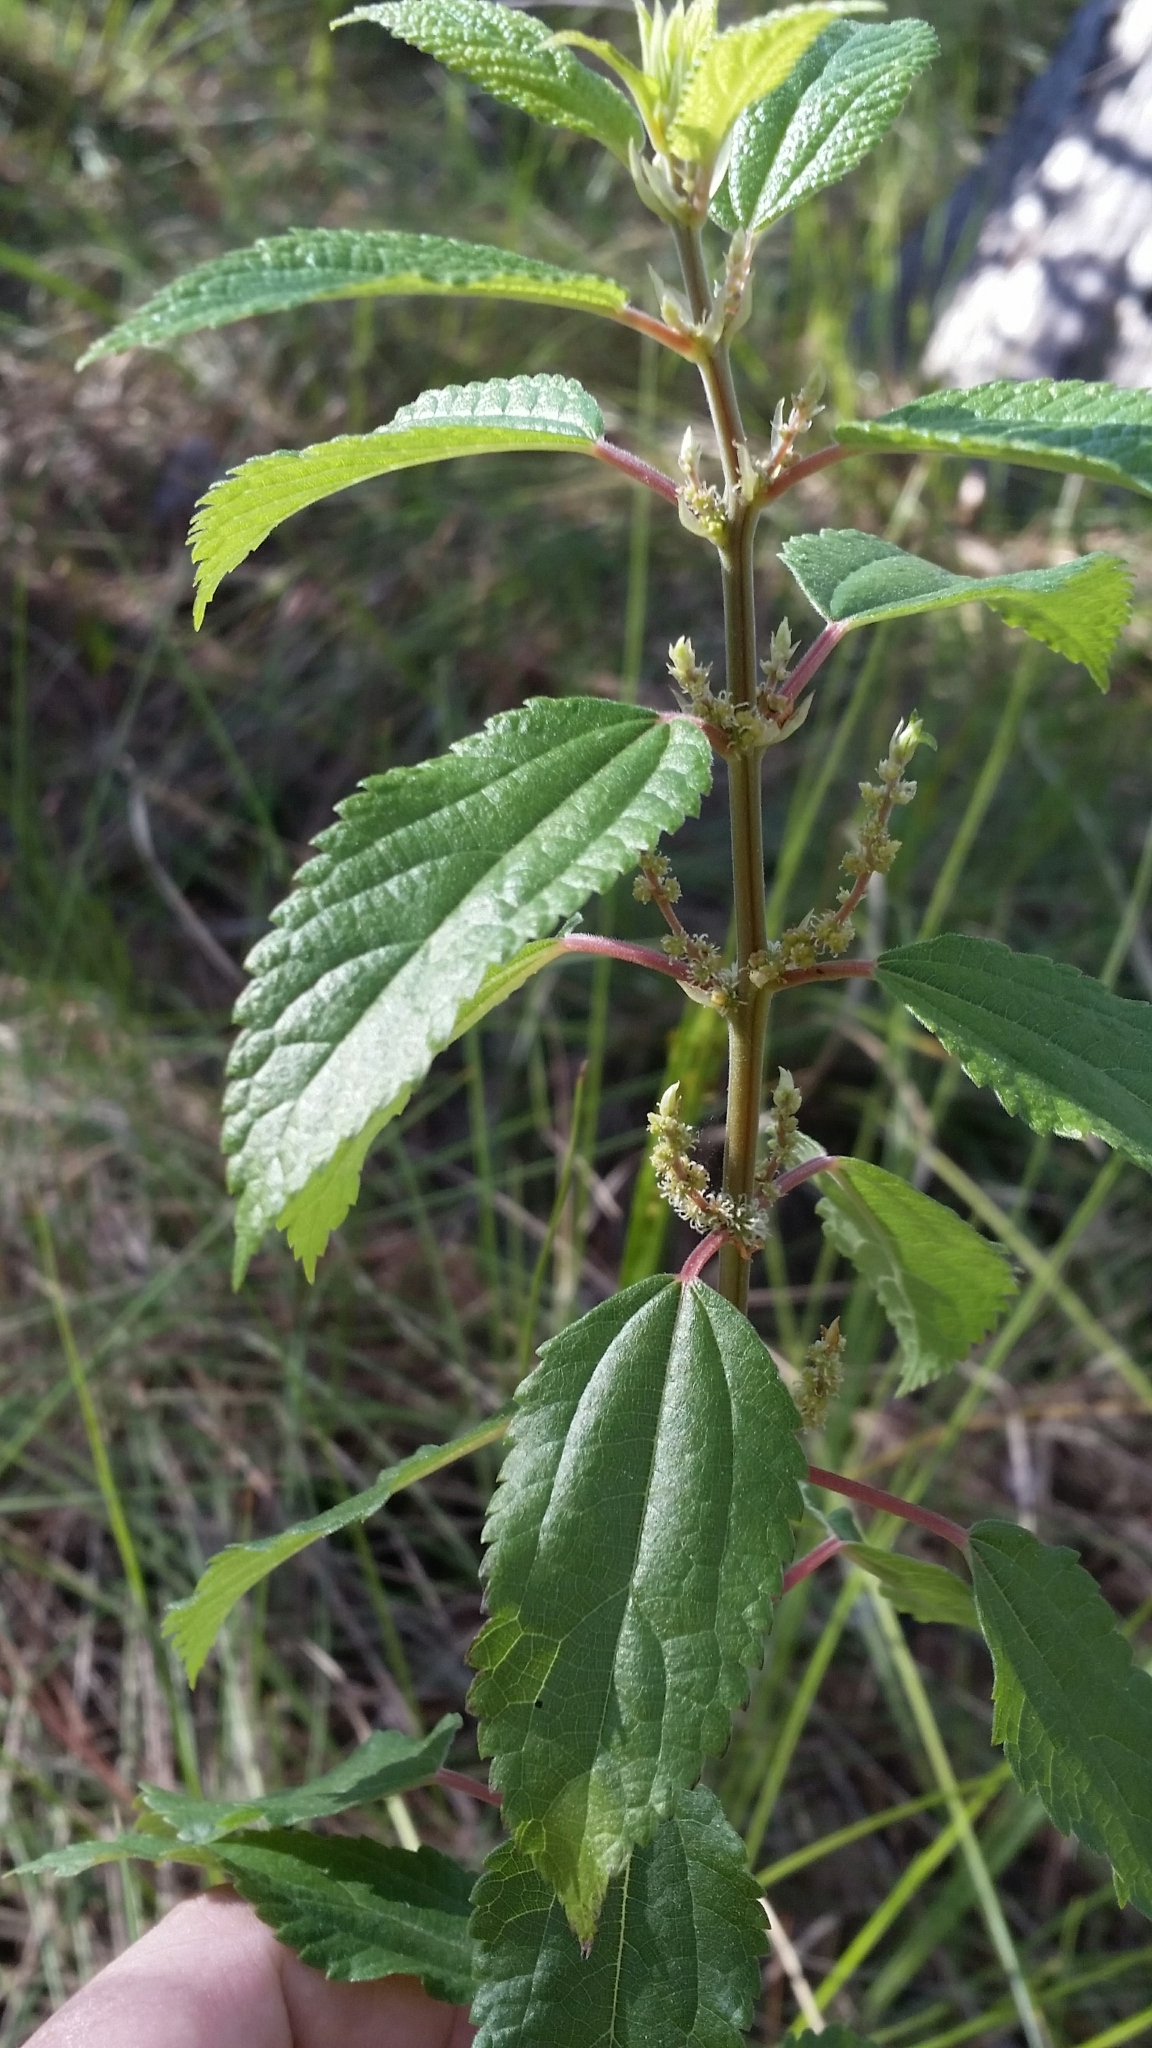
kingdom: Plantae
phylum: Tracheophyta
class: Magnoliopsida
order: Rosales
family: Urticaceae
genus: Boehmeria
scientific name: Boehmeria cylindrica
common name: Bog-hemp
